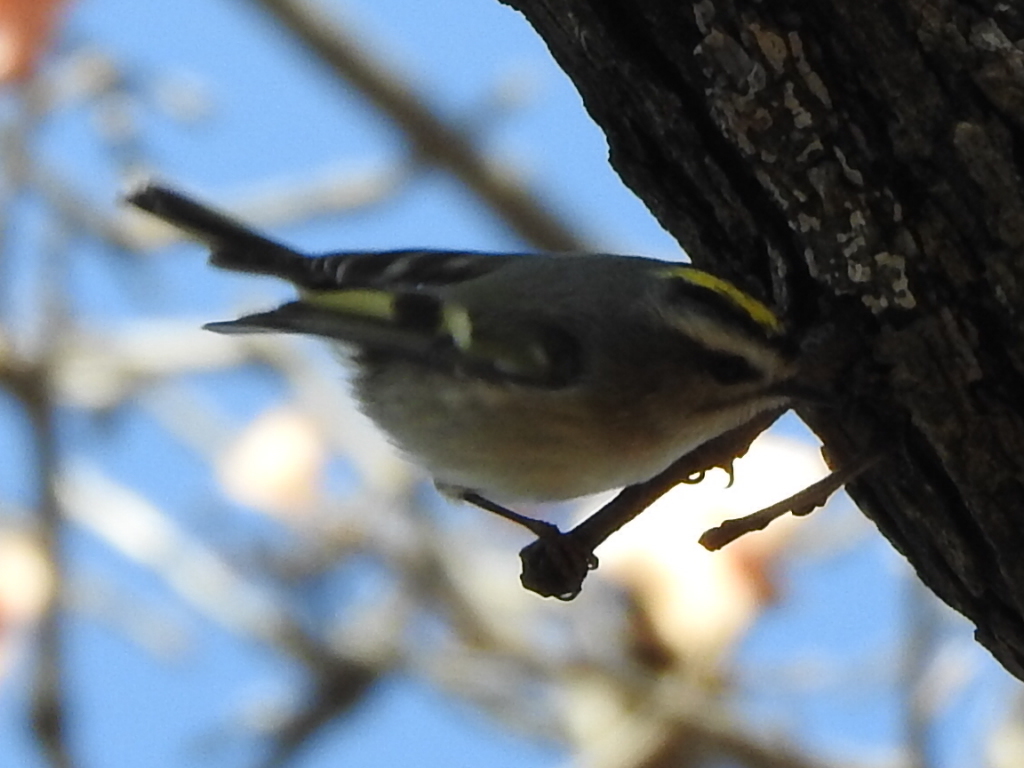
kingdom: Animalia
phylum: Chordata
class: Aves
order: Passeriformes
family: Regulidae
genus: Regulus
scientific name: Regulus satrapa
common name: Golden-crowned kinglet
